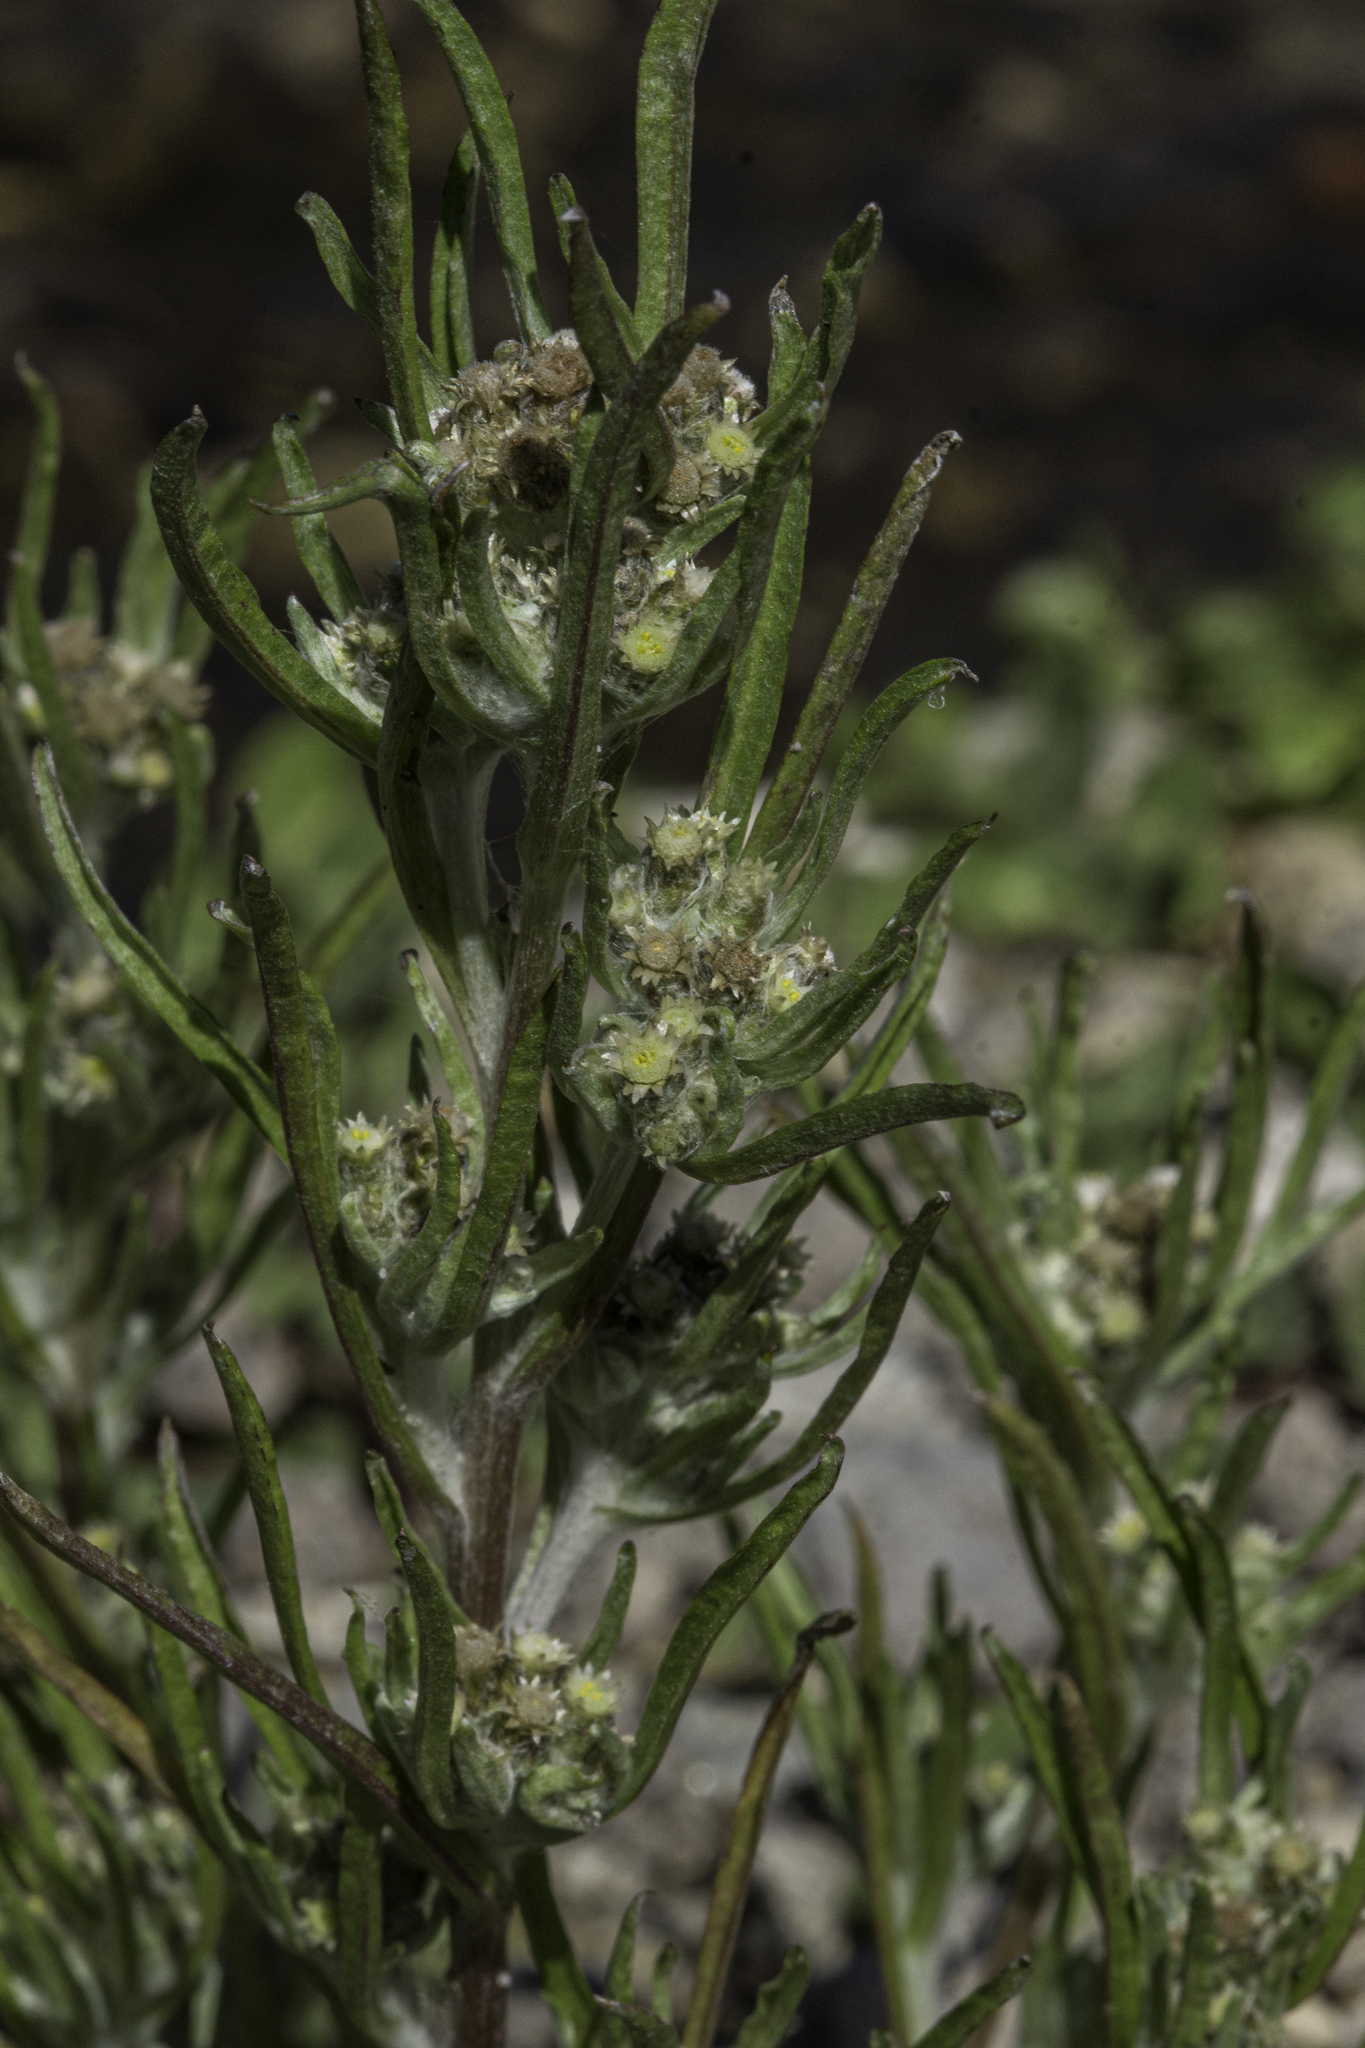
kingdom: Plantae
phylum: Tracheophyta
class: Magnoliopsida
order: Asterales
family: Asteraceae
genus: Gnaphalium
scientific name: Gnaphalium exilifolium
